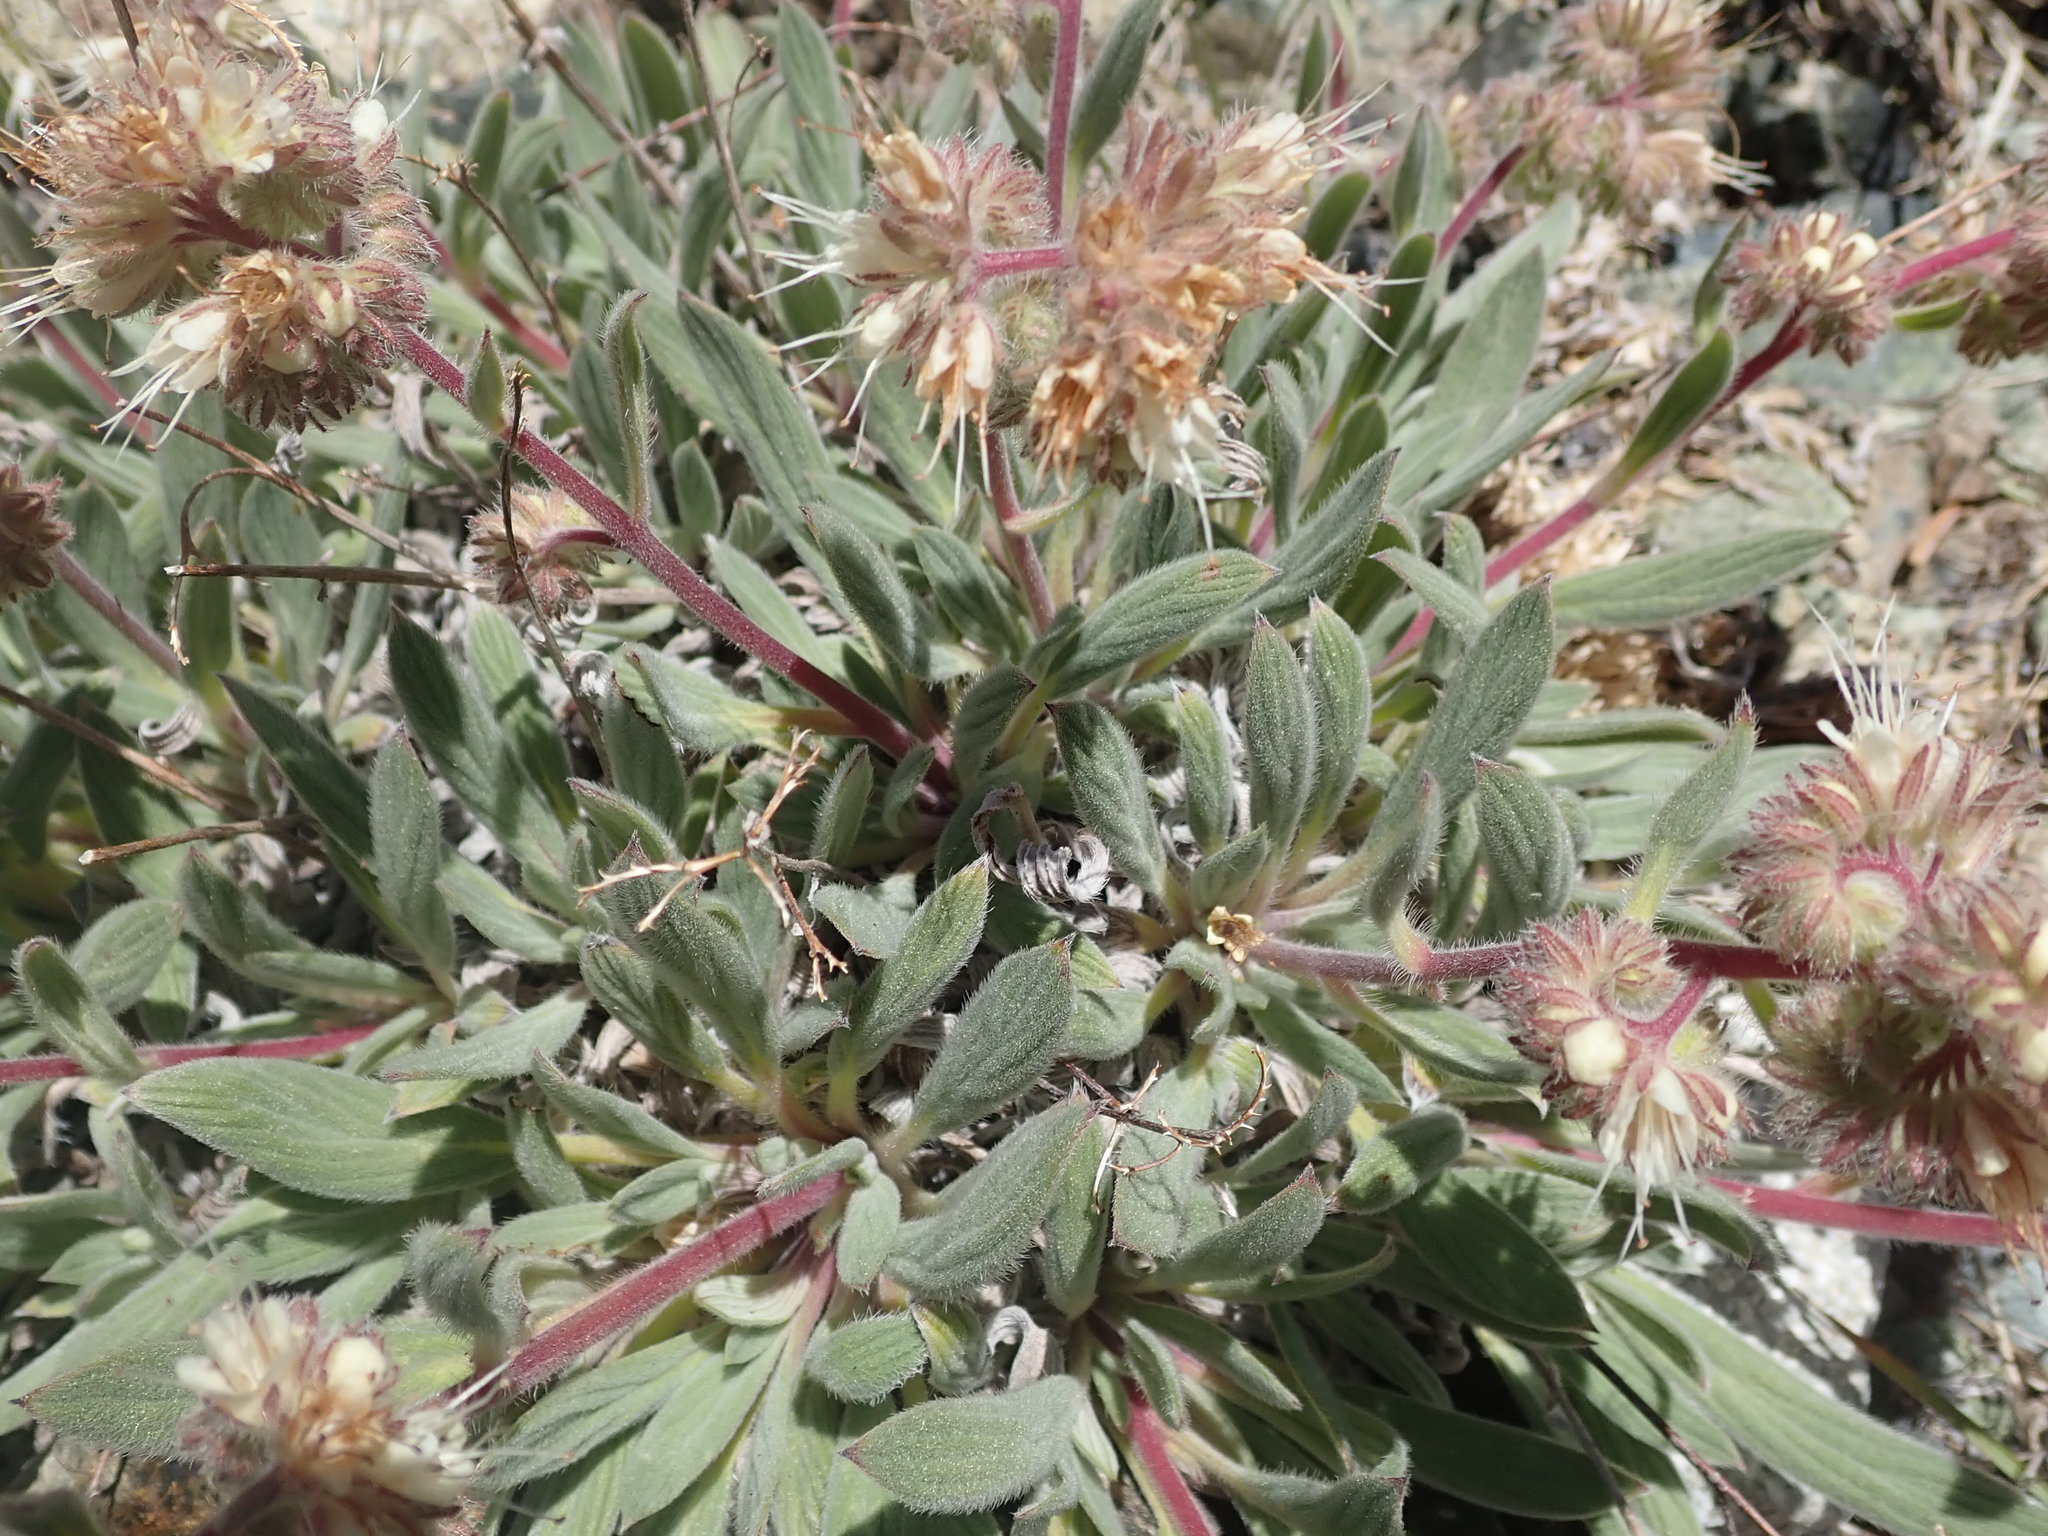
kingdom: Plantae
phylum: Tracheophyta
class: Magnoliopsida
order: Boraginales
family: Hydrophyllaceae
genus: Phacelia
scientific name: Phacelia hastata
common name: Silver-leaved phacelia
